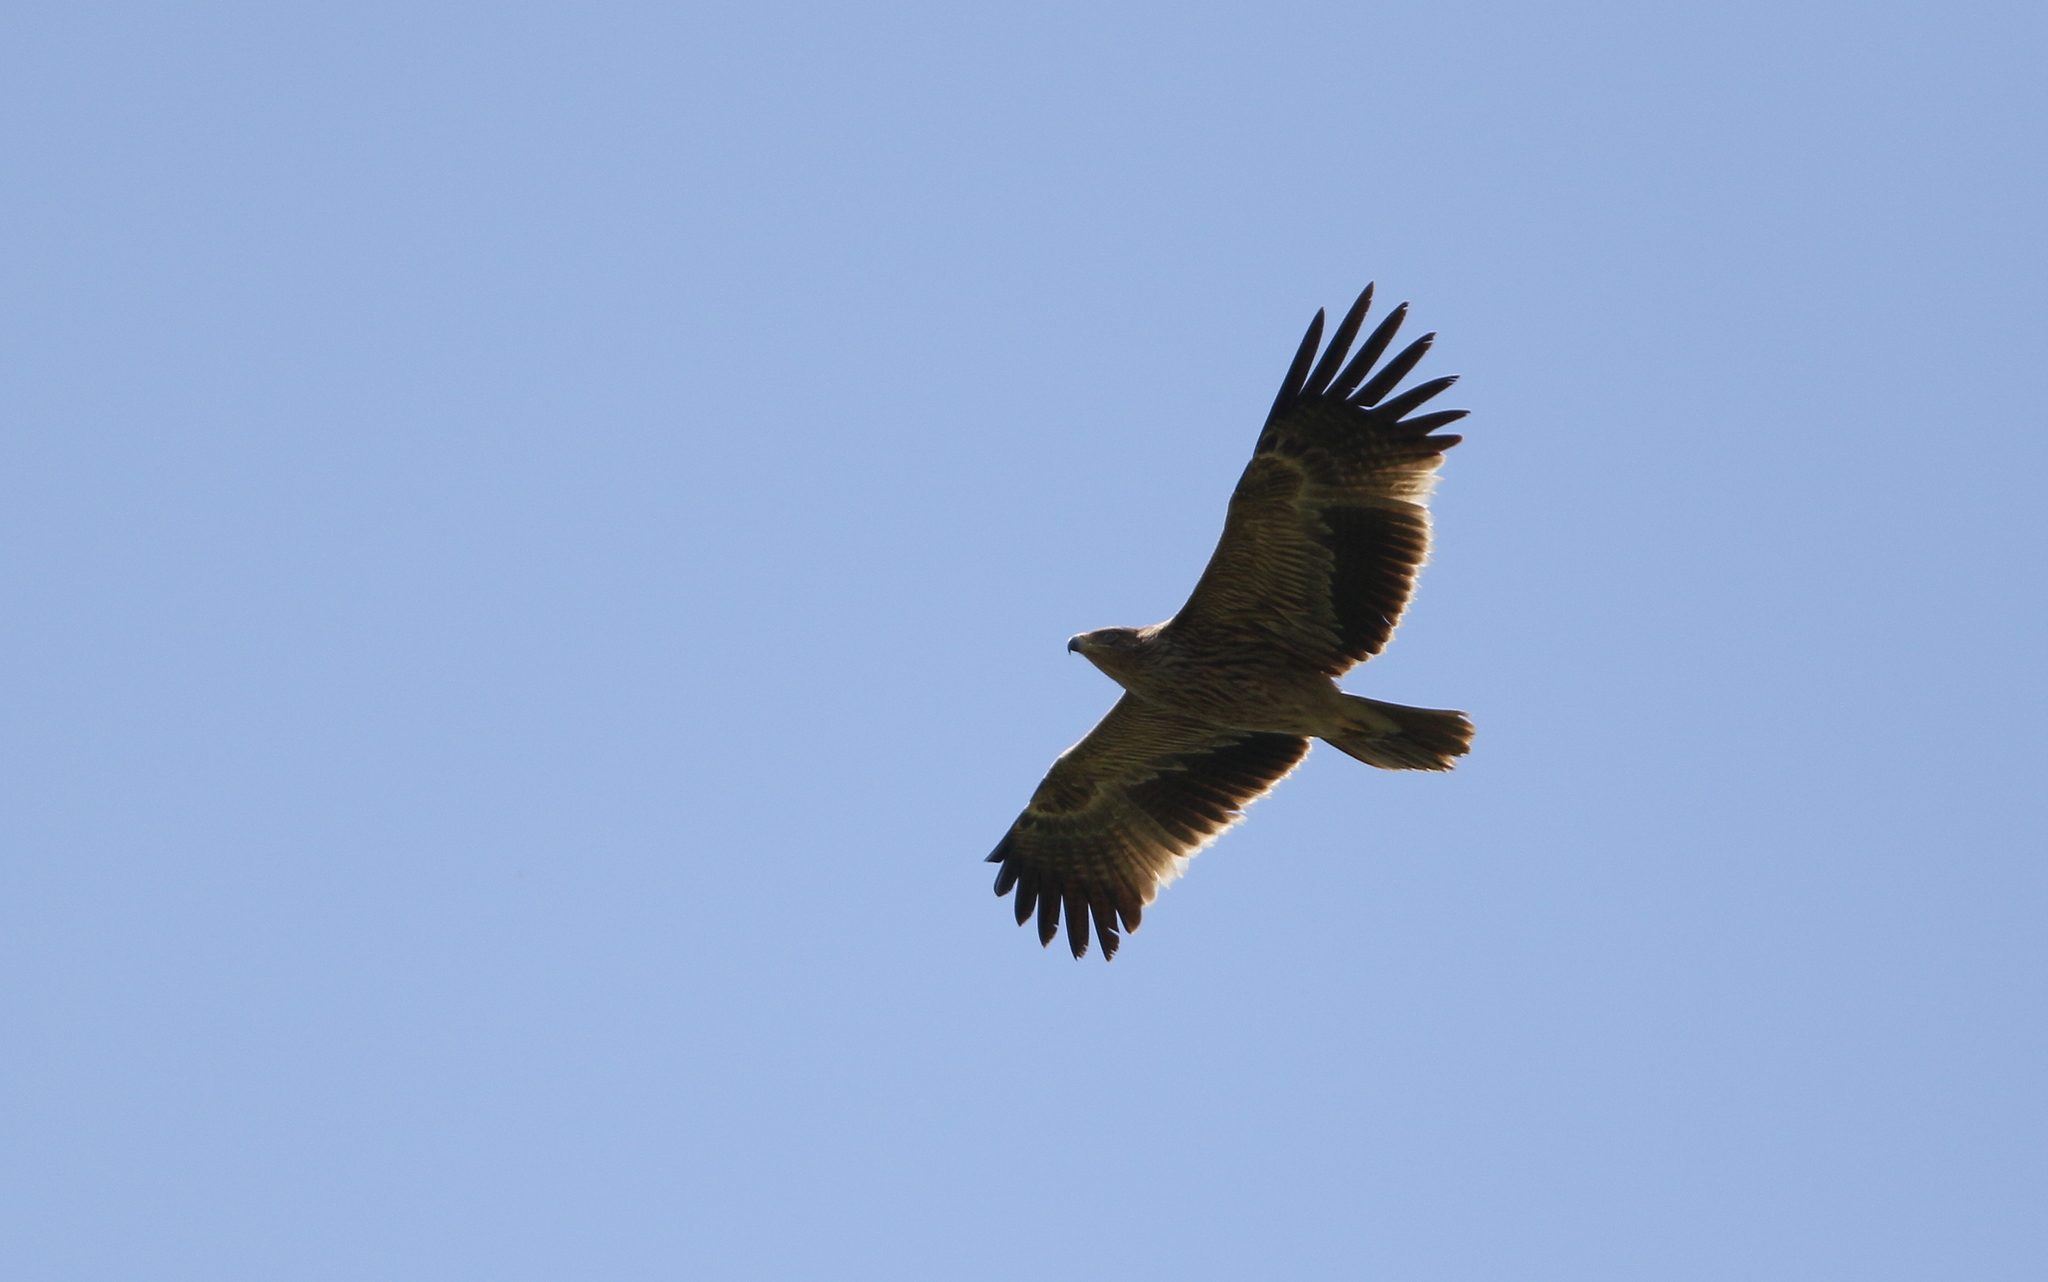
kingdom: Animalia
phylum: Chordata
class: Aves
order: Accipitriformes
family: Accipitridae
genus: Aquila
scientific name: Aquila heliaca
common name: Eastern imperial eagle
